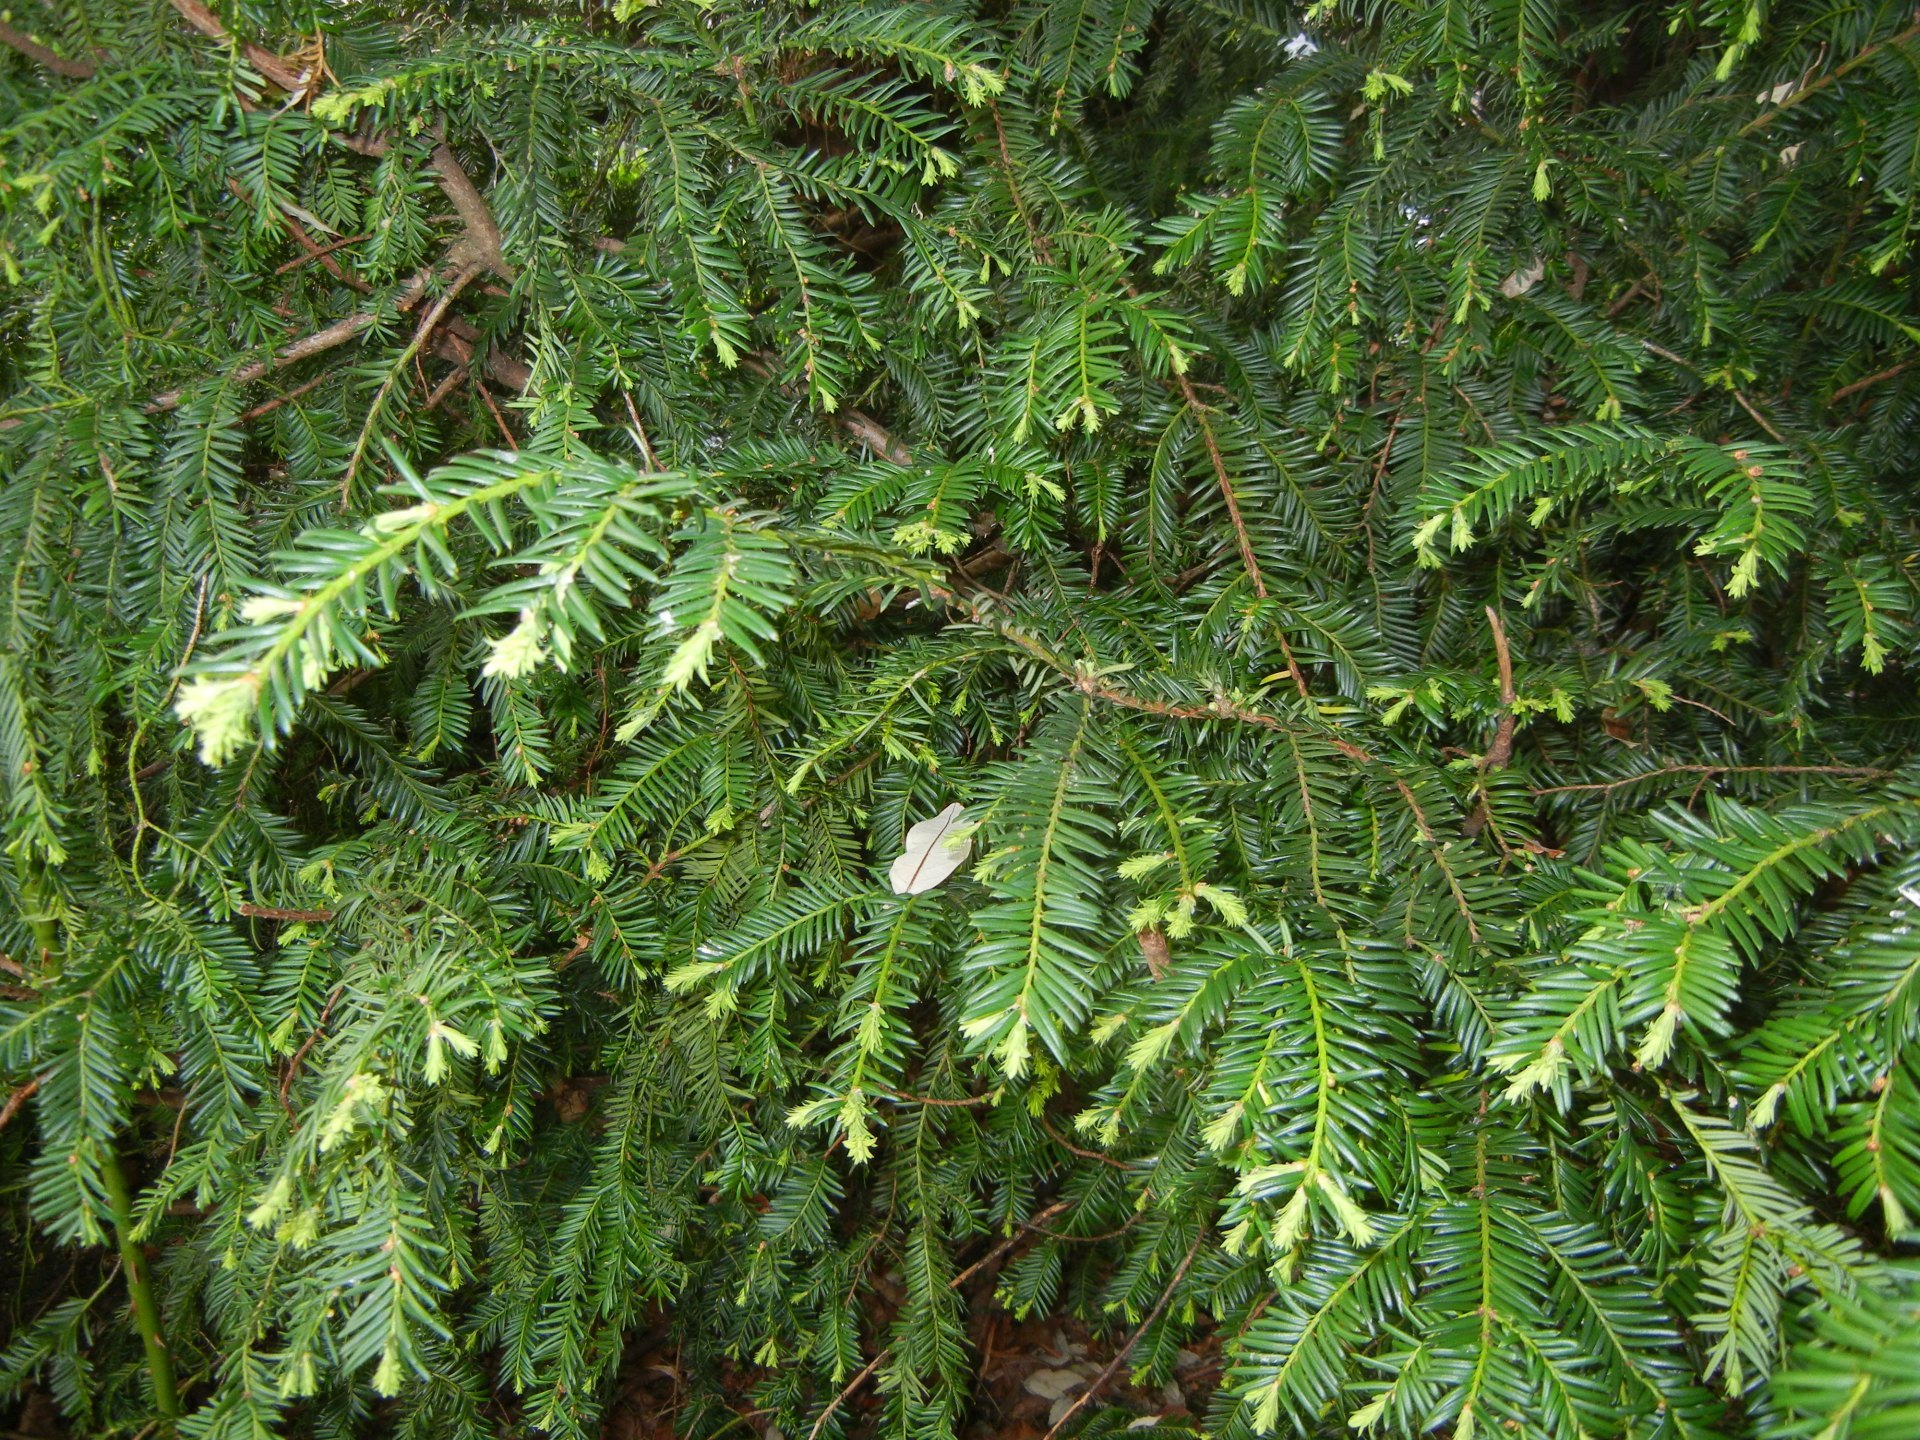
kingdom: Plantae
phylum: Tracheophyta
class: Pinopsida
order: Pinales
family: Taxaceae
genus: Taxus
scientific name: Taxus baccata
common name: Yew
